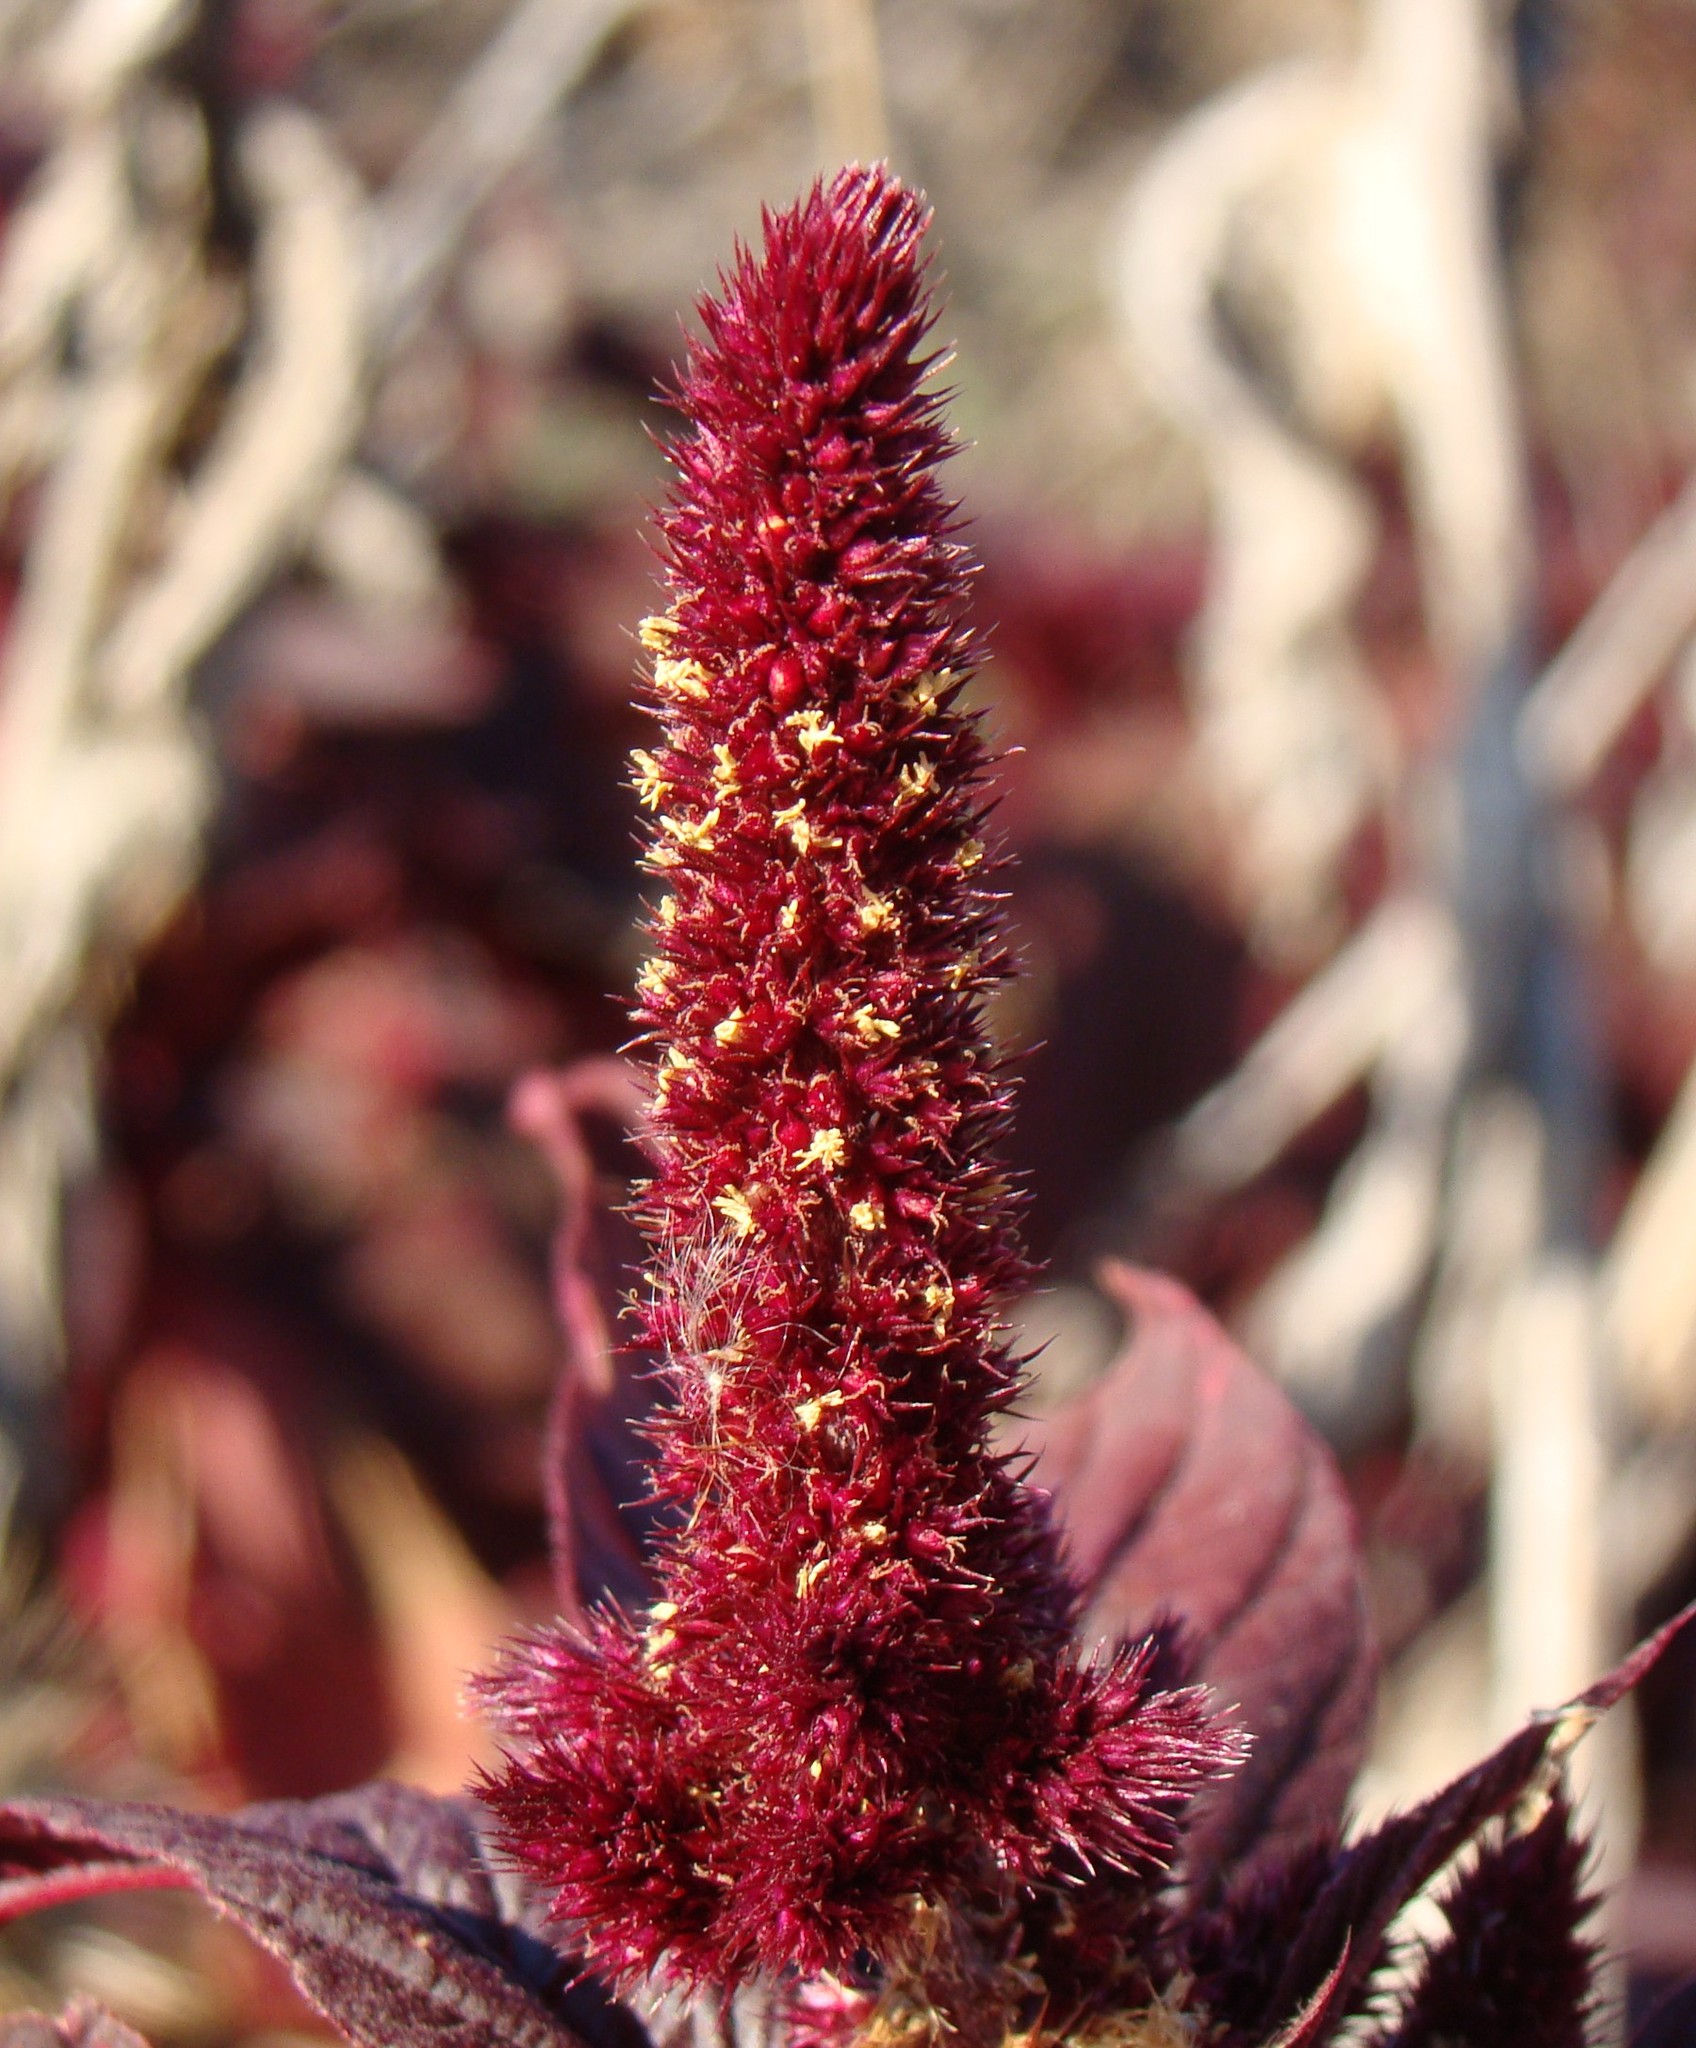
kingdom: Plantae
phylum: Tracheophyta
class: Magnoliopsida
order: Caryophyllales
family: Amaranthaceae
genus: Amaranthus
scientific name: Amaranthus cruentus
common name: Purple amaranth
